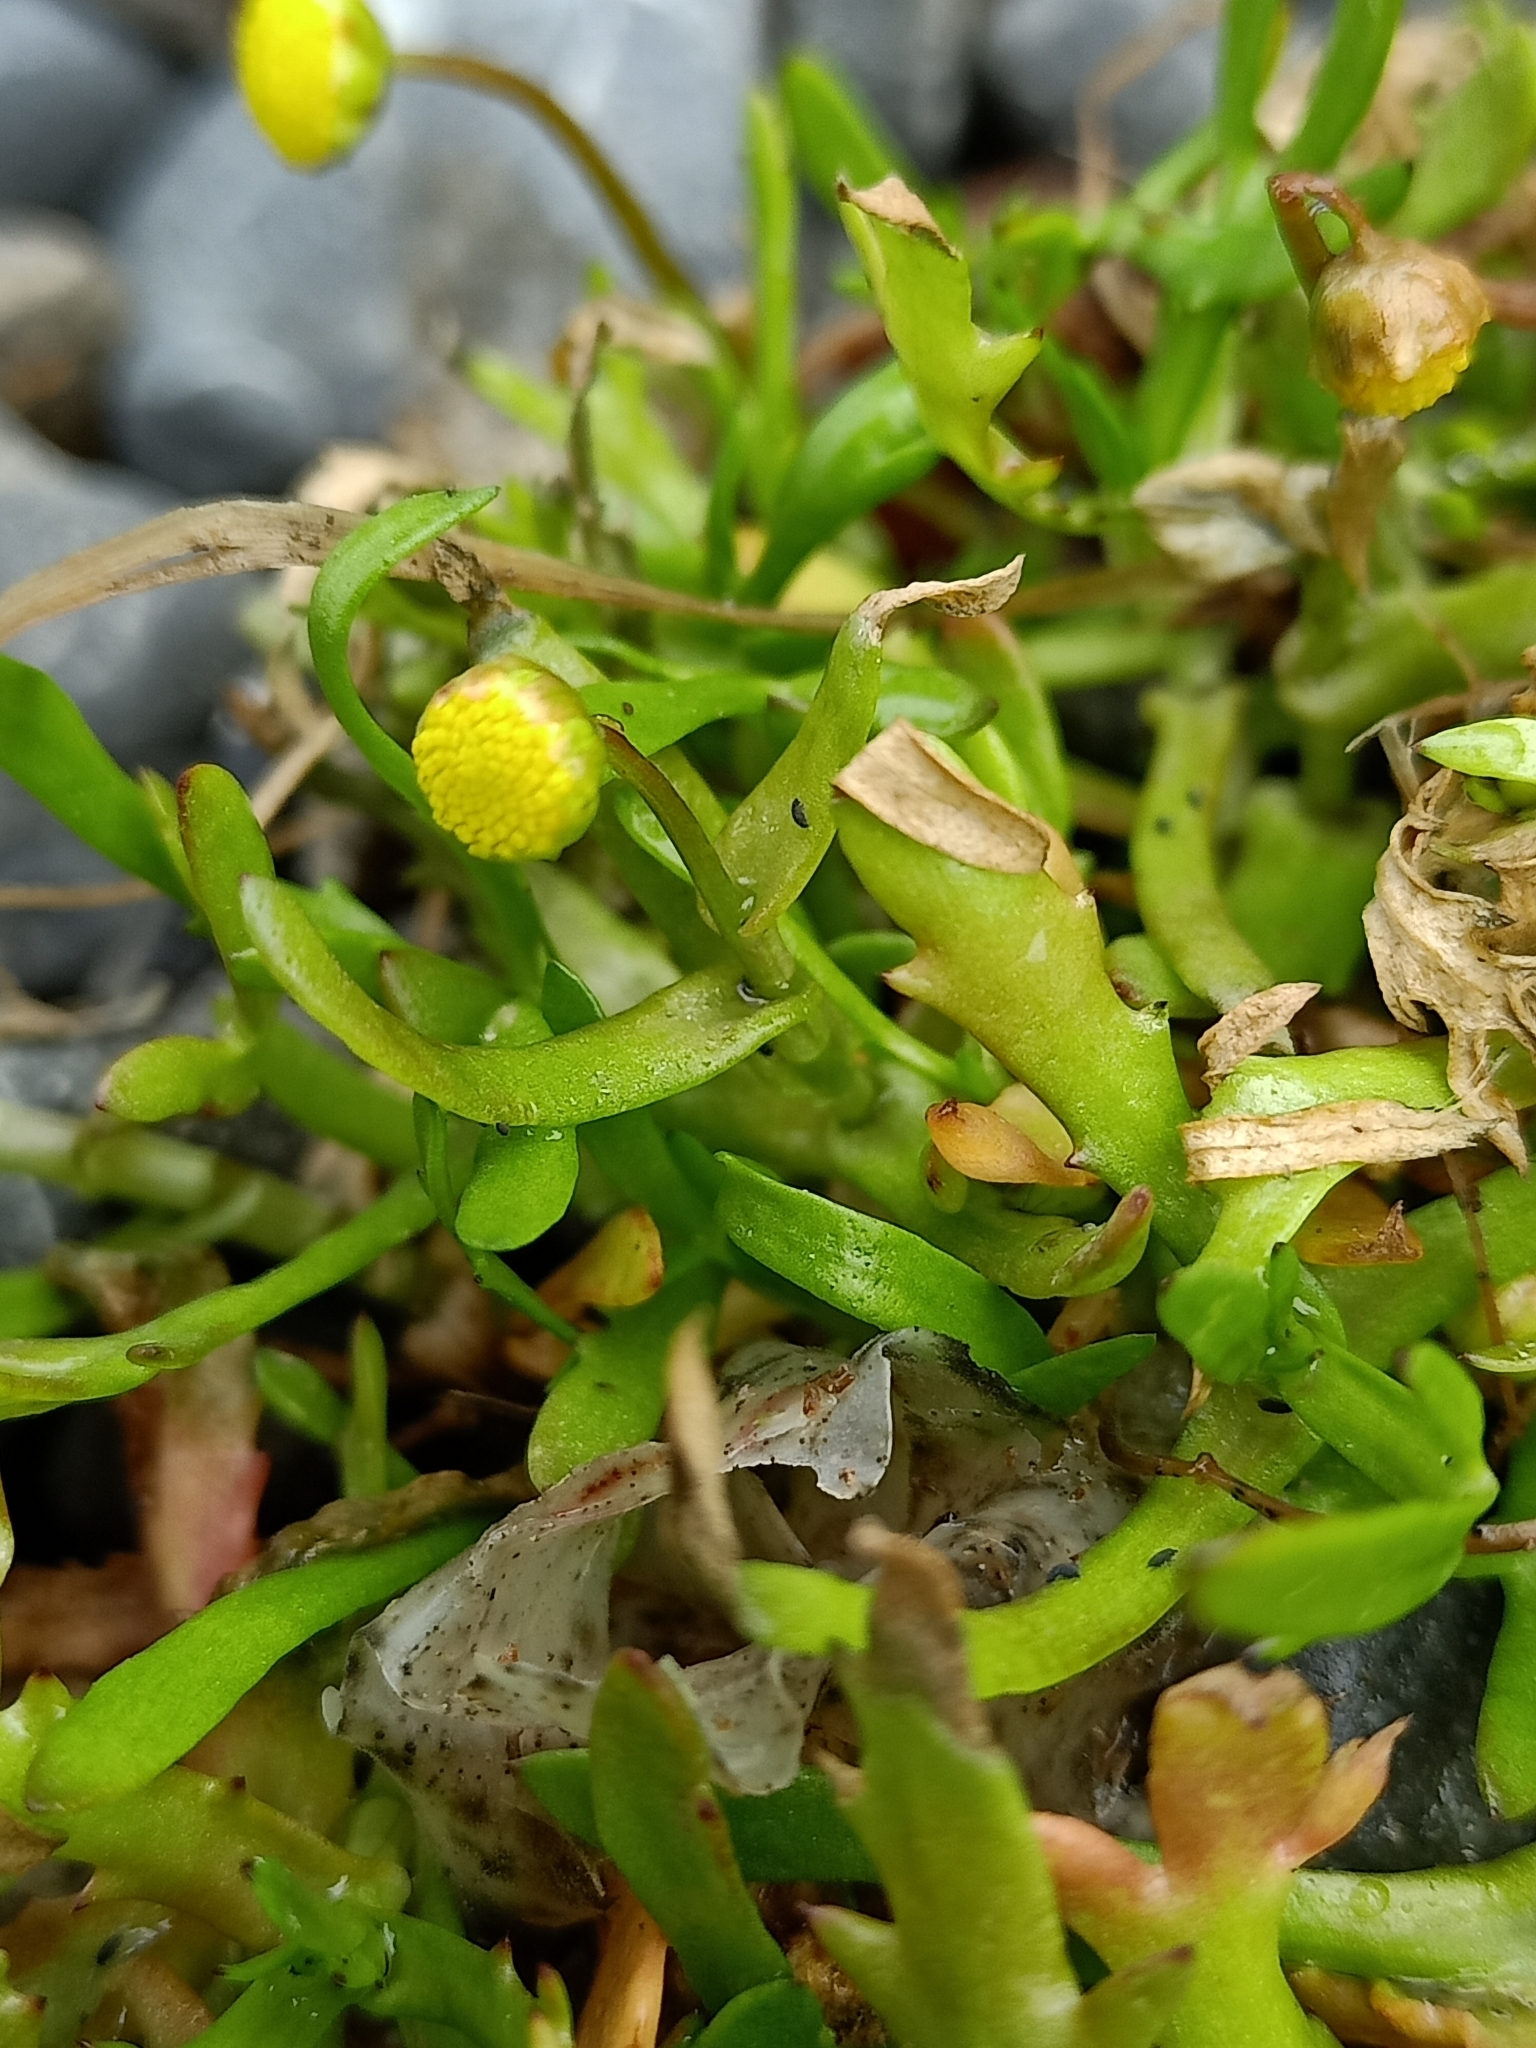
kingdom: Plantae
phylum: Tracheophyta
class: Magnoliopsida
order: Asterales
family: Asteraceae
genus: Cotula
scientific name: Cotula coronopifolia
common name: Buttonweed
